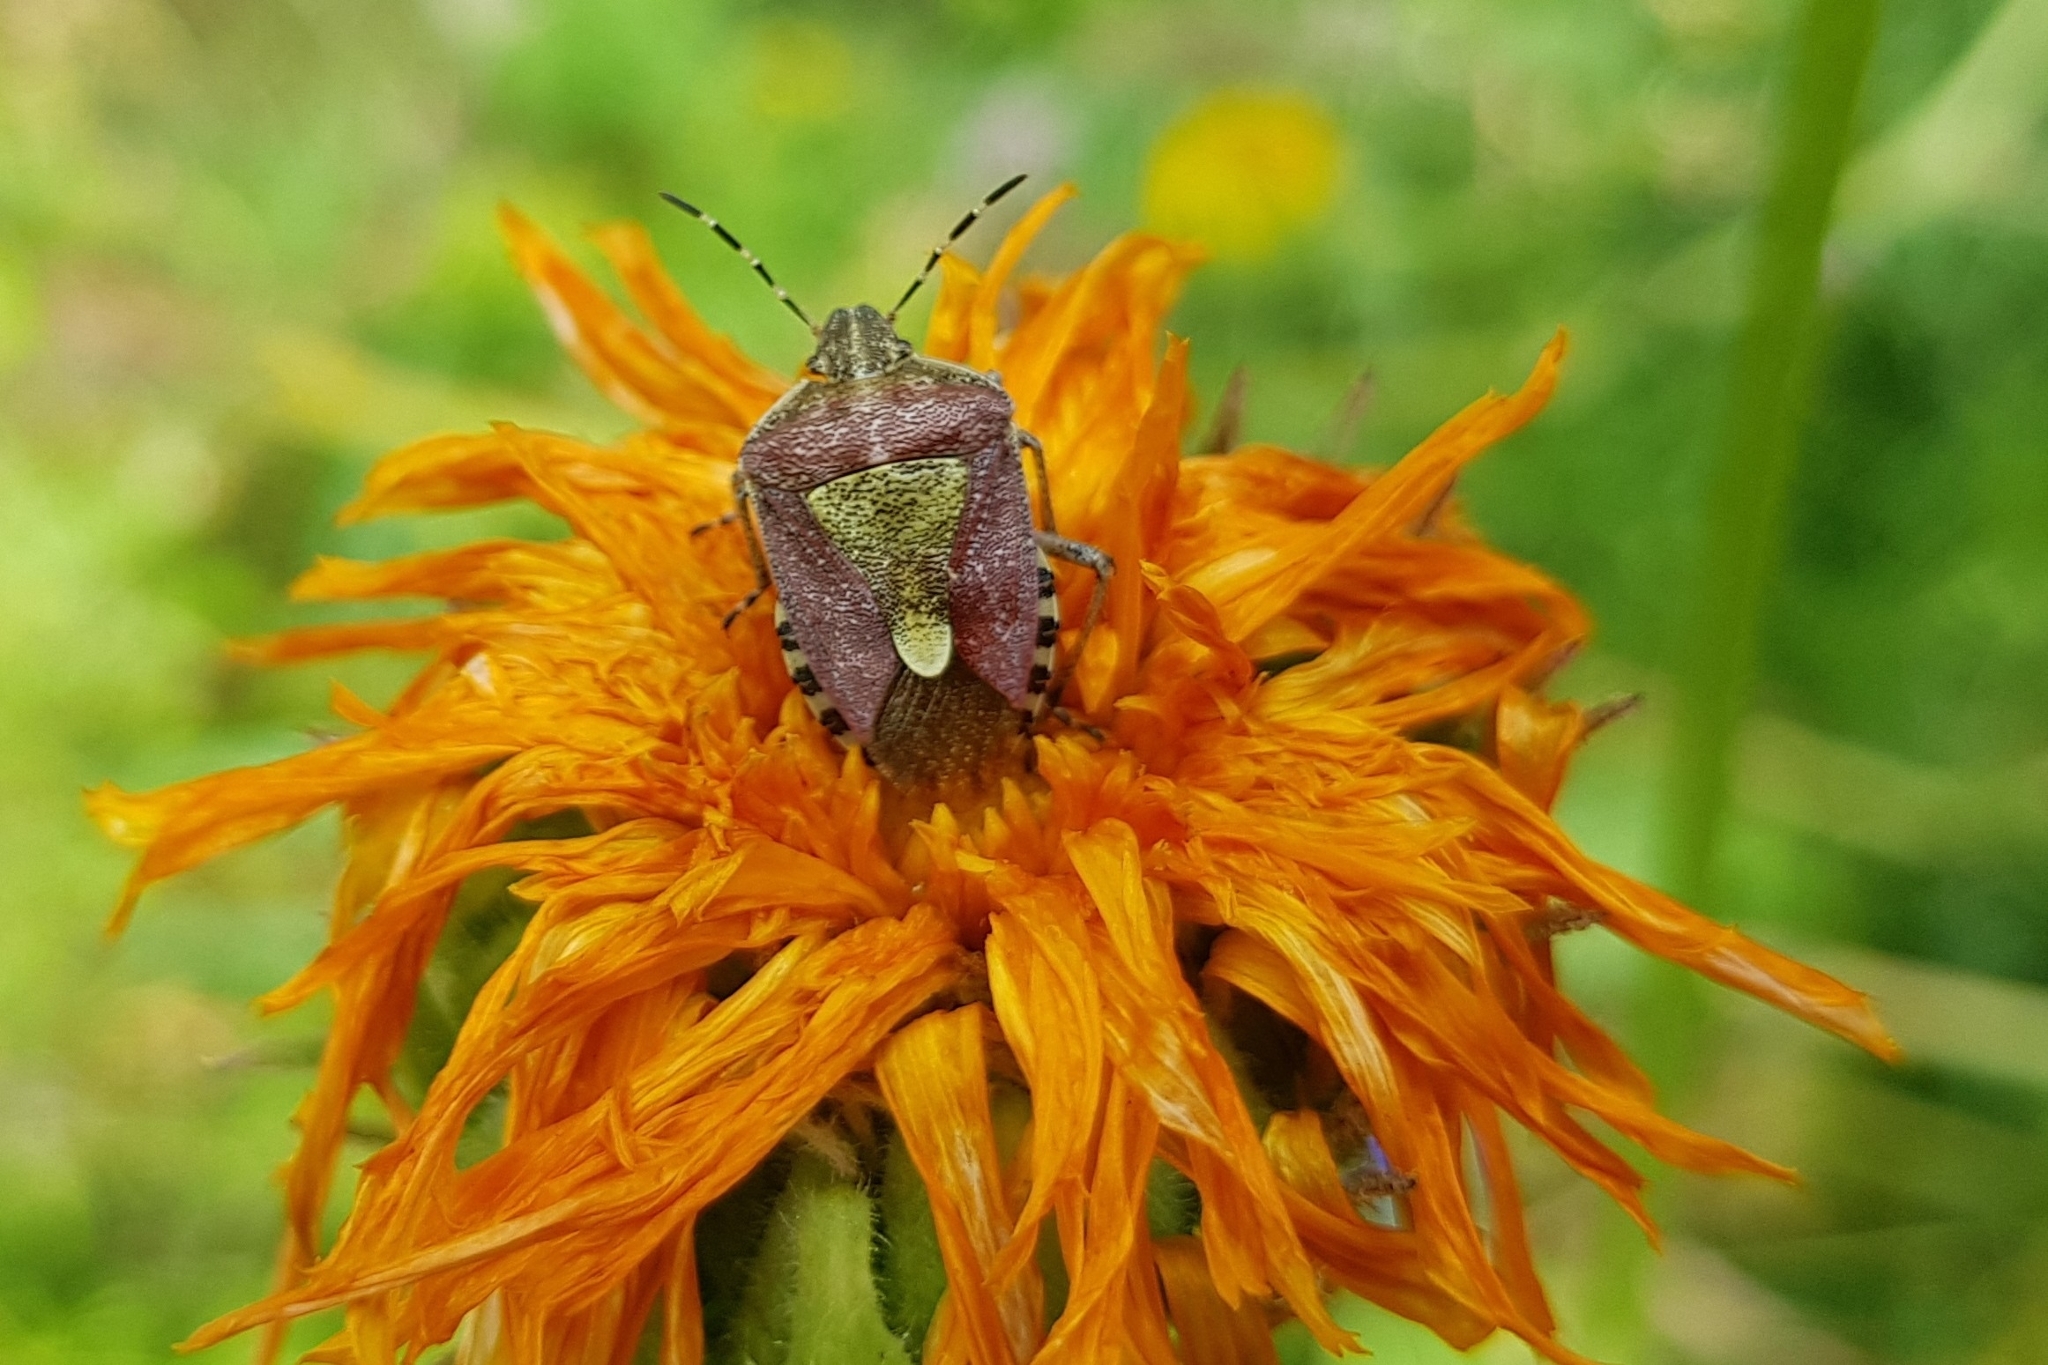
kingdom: Animalia
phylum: Arthropoda
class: Insecta
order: Hemiptera
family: Pentatomidae
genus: Dolycoris
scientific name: Dolycoris baccarum
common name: Sloe bug
